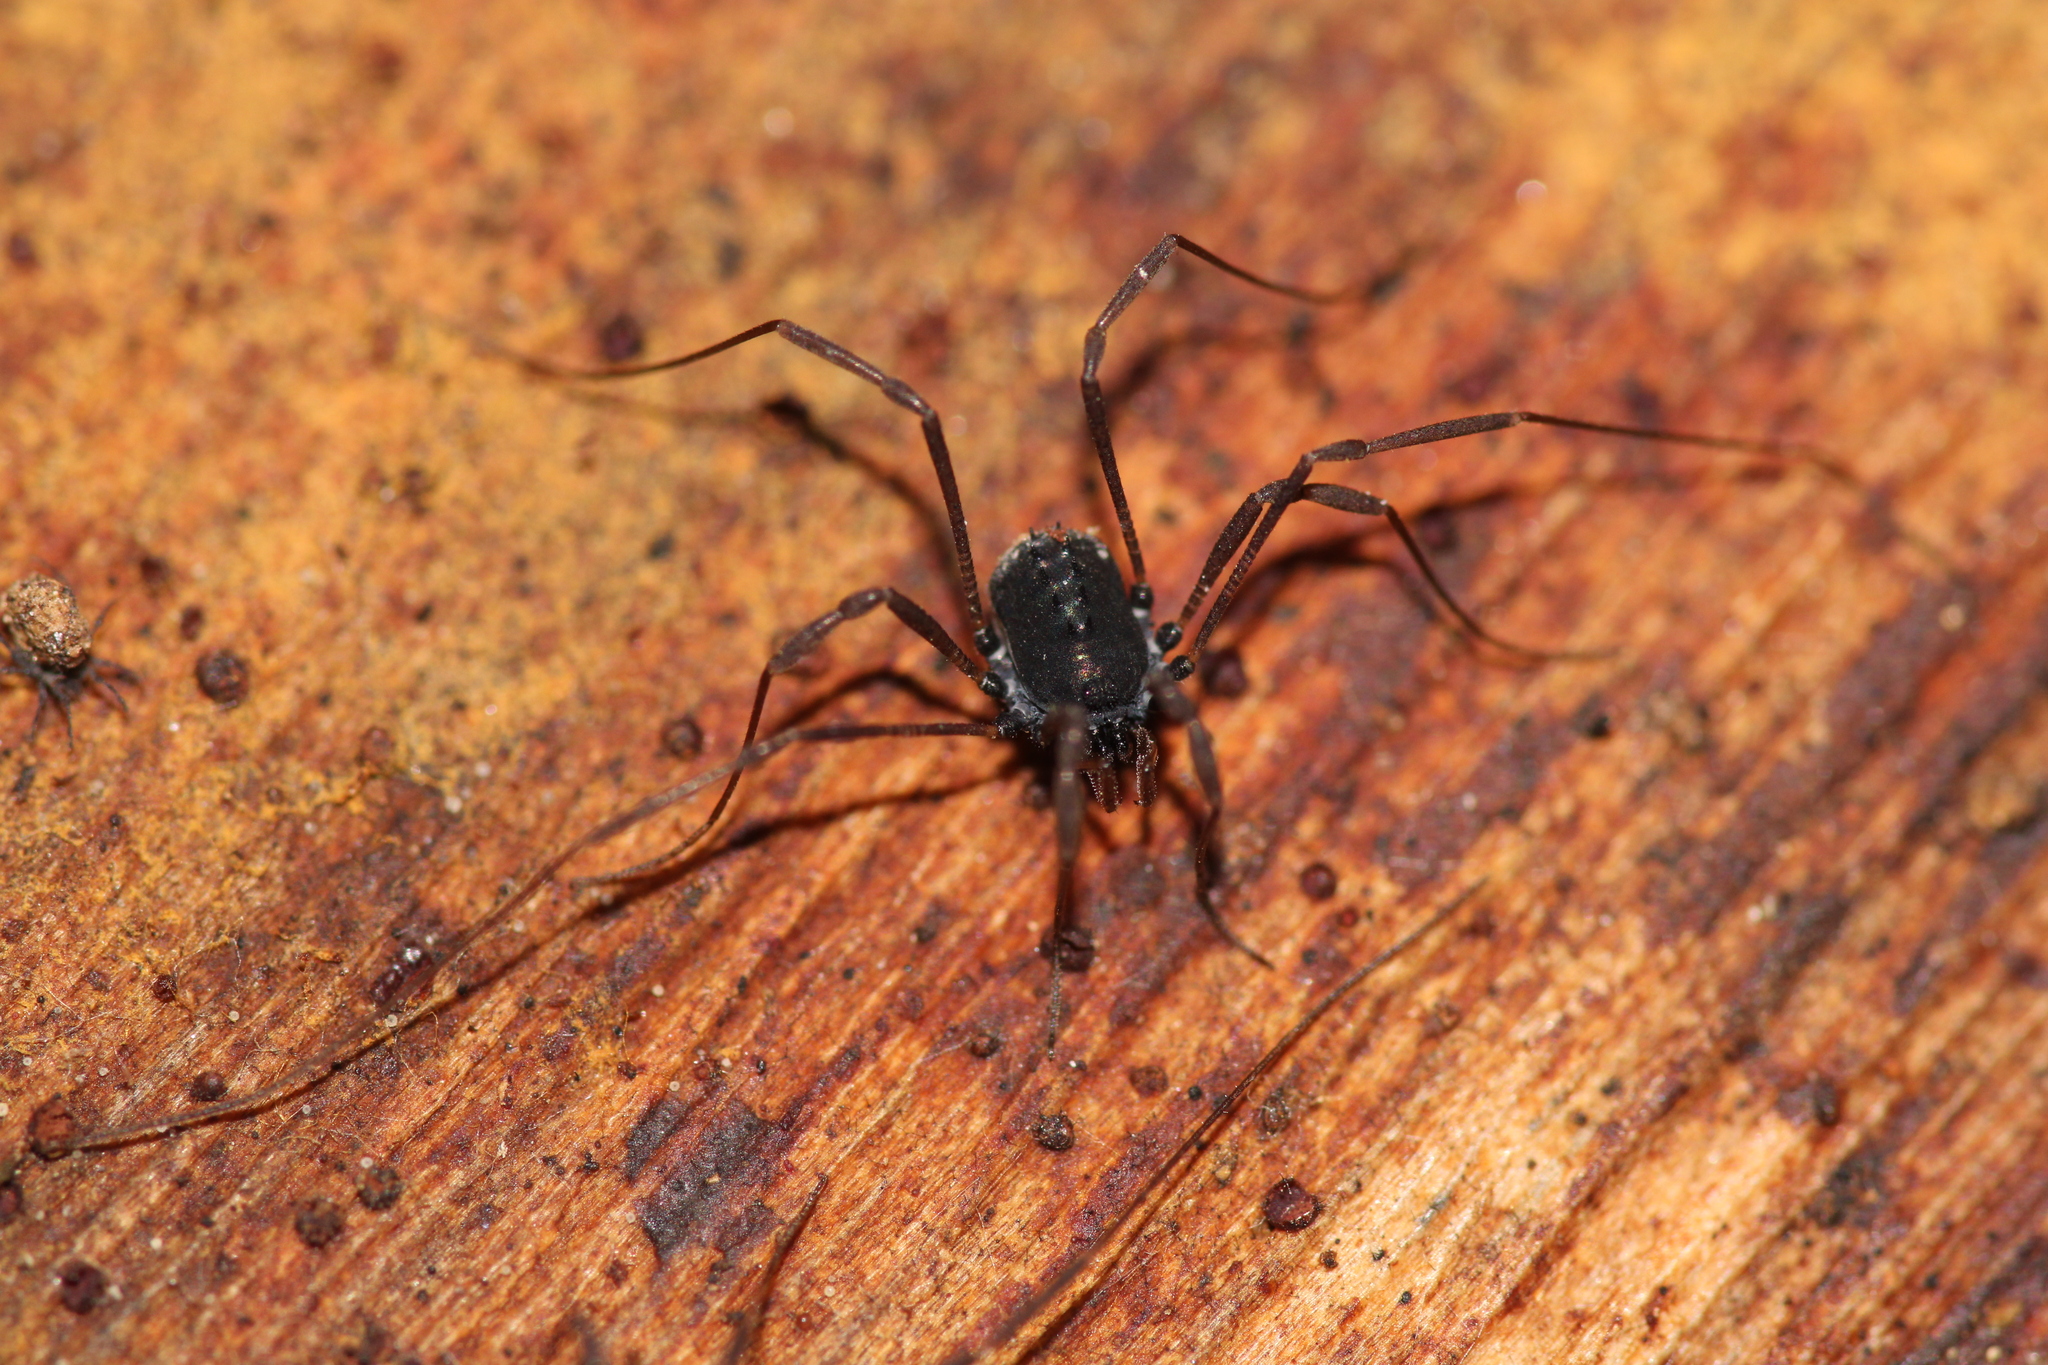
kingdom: Animalia
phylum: Arthropoda
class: Arachnida
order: Opiliones
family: Nemastomatidae
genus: Histricostoma
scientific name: Histricostoma dentipalpe
